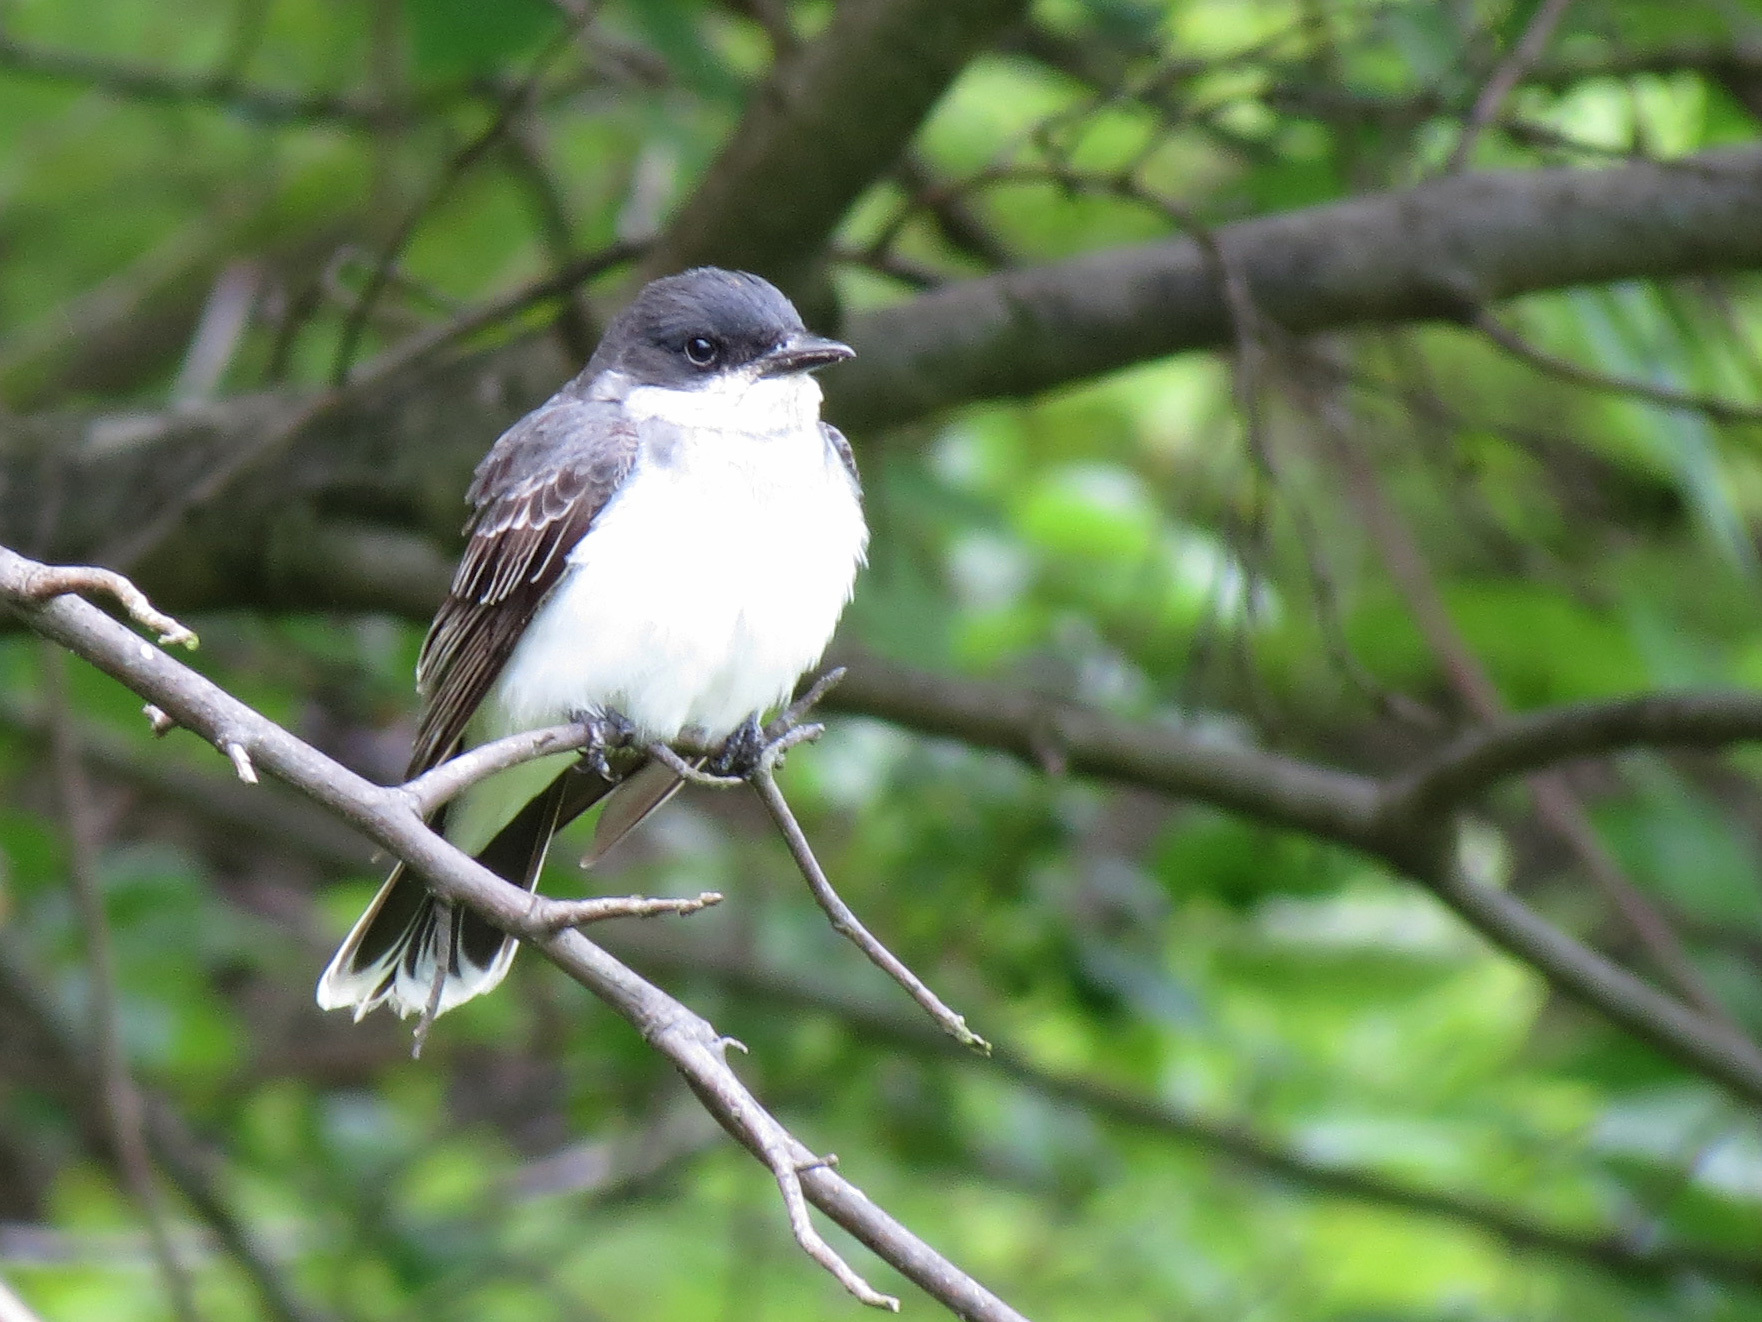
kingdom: Animalia
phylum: Chordata
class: Aves
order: Passeriformes
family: Tyrannidae
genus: Tyrannus
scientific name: Tyrannus tyrannus
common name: Eastern kingbird
